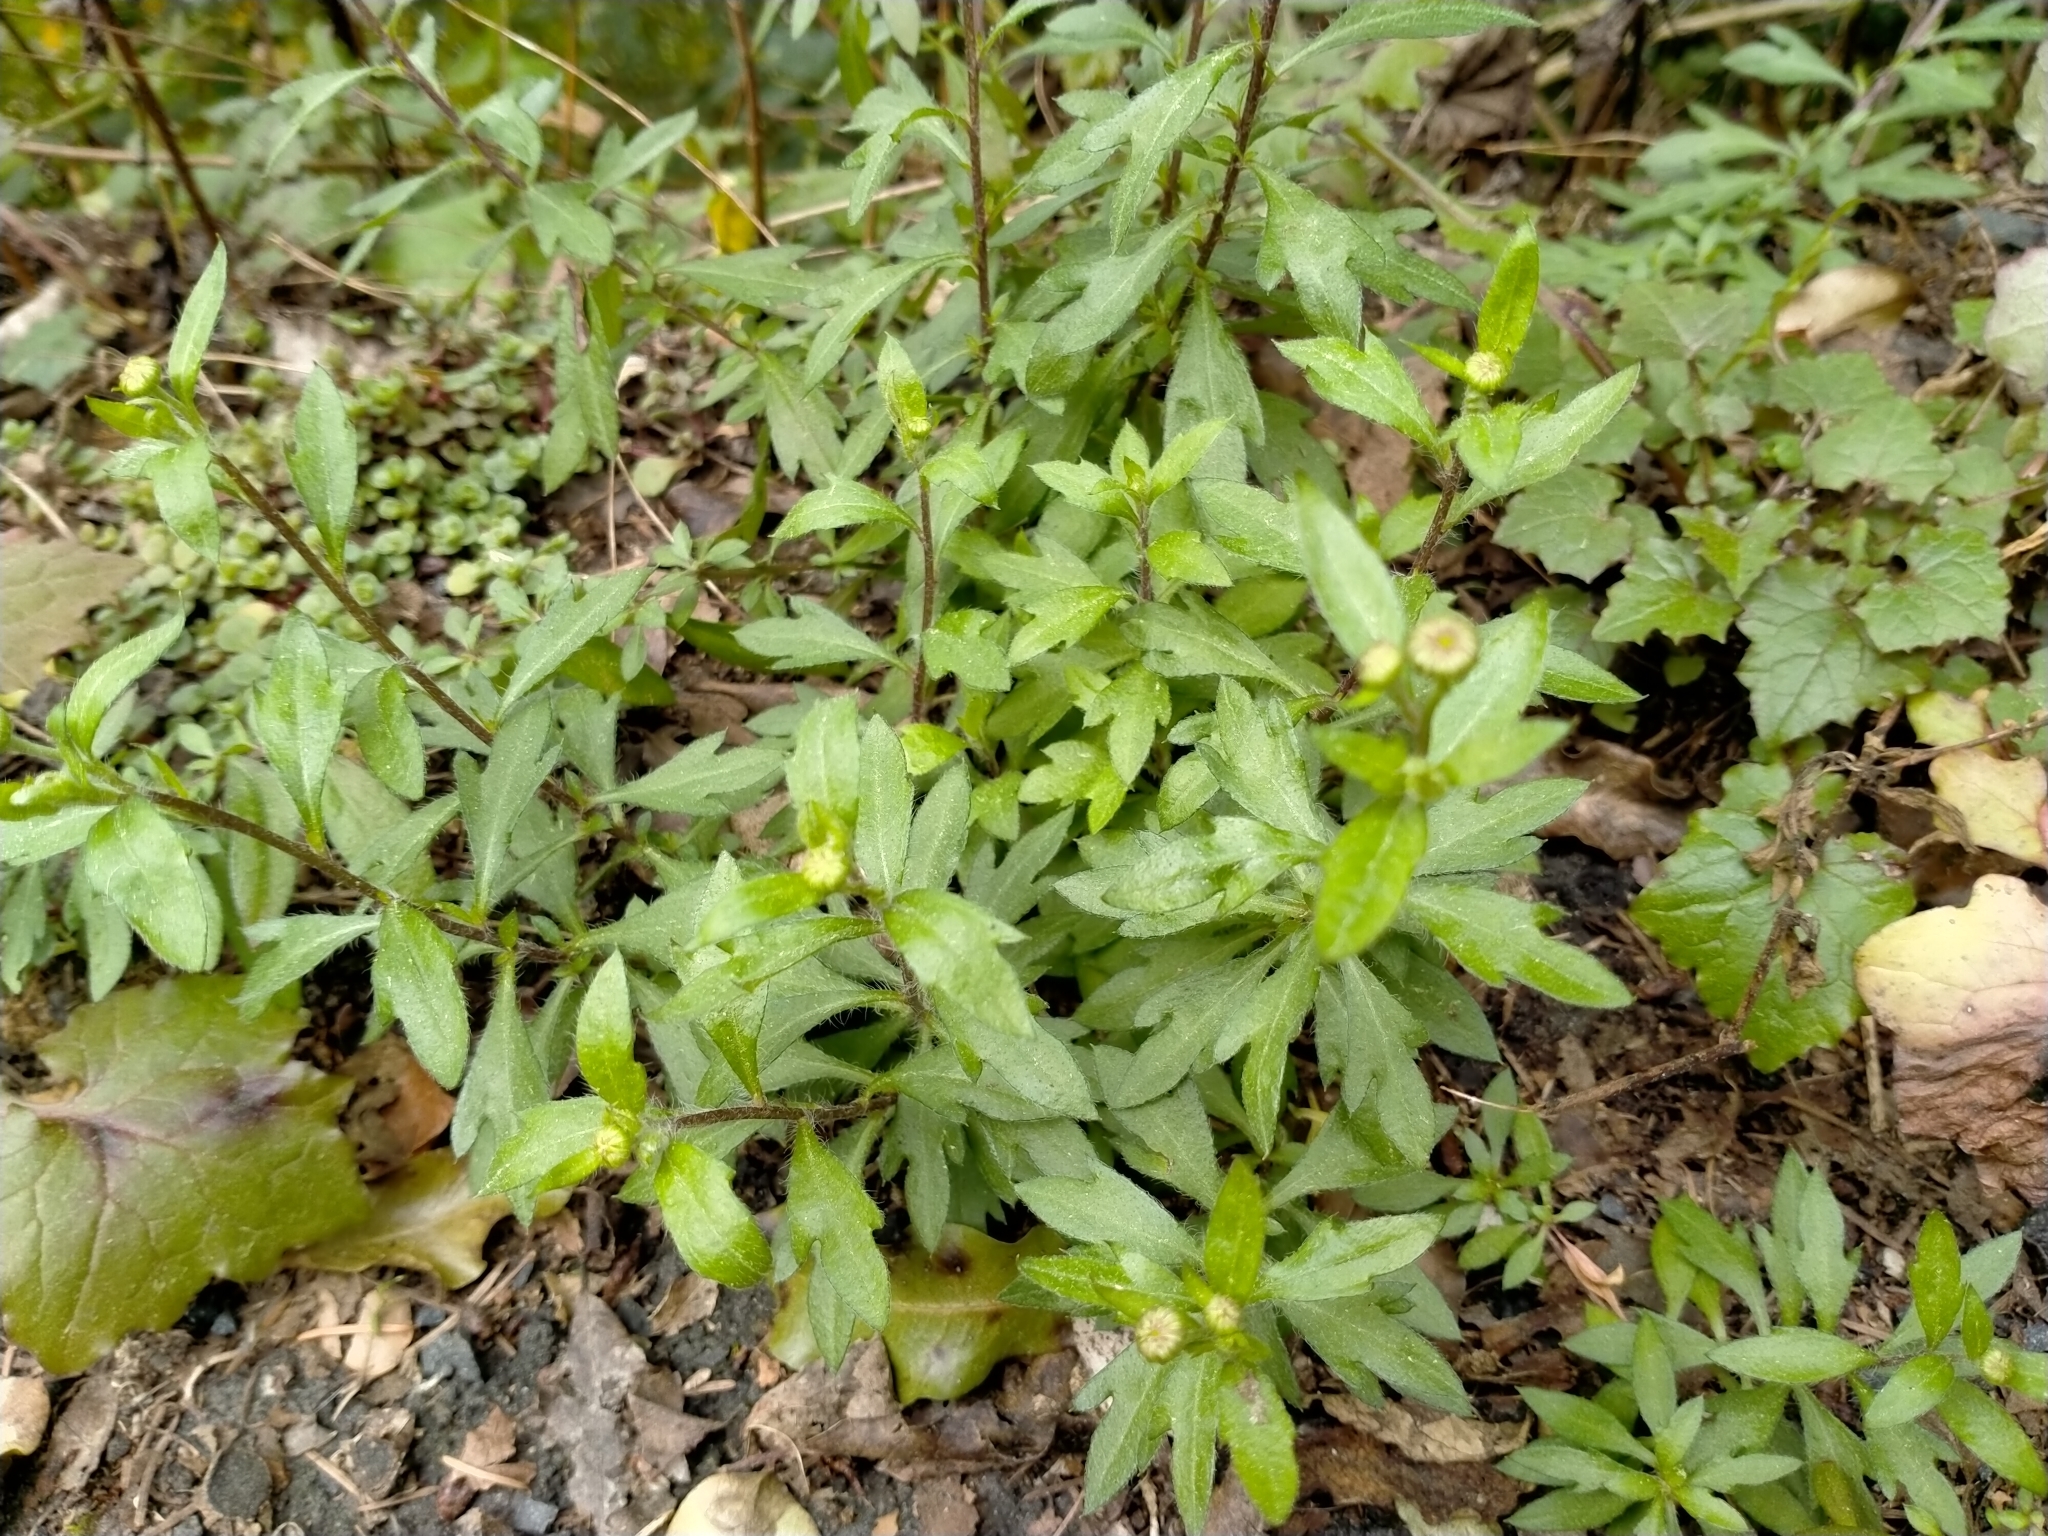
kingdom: Plantae
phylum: Tracheophyta
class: Magnoliopsida
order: Asterales
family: Asteraceae
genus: Erigeron
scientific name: Erigeron karvinskianus
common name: Mexican fleabane
